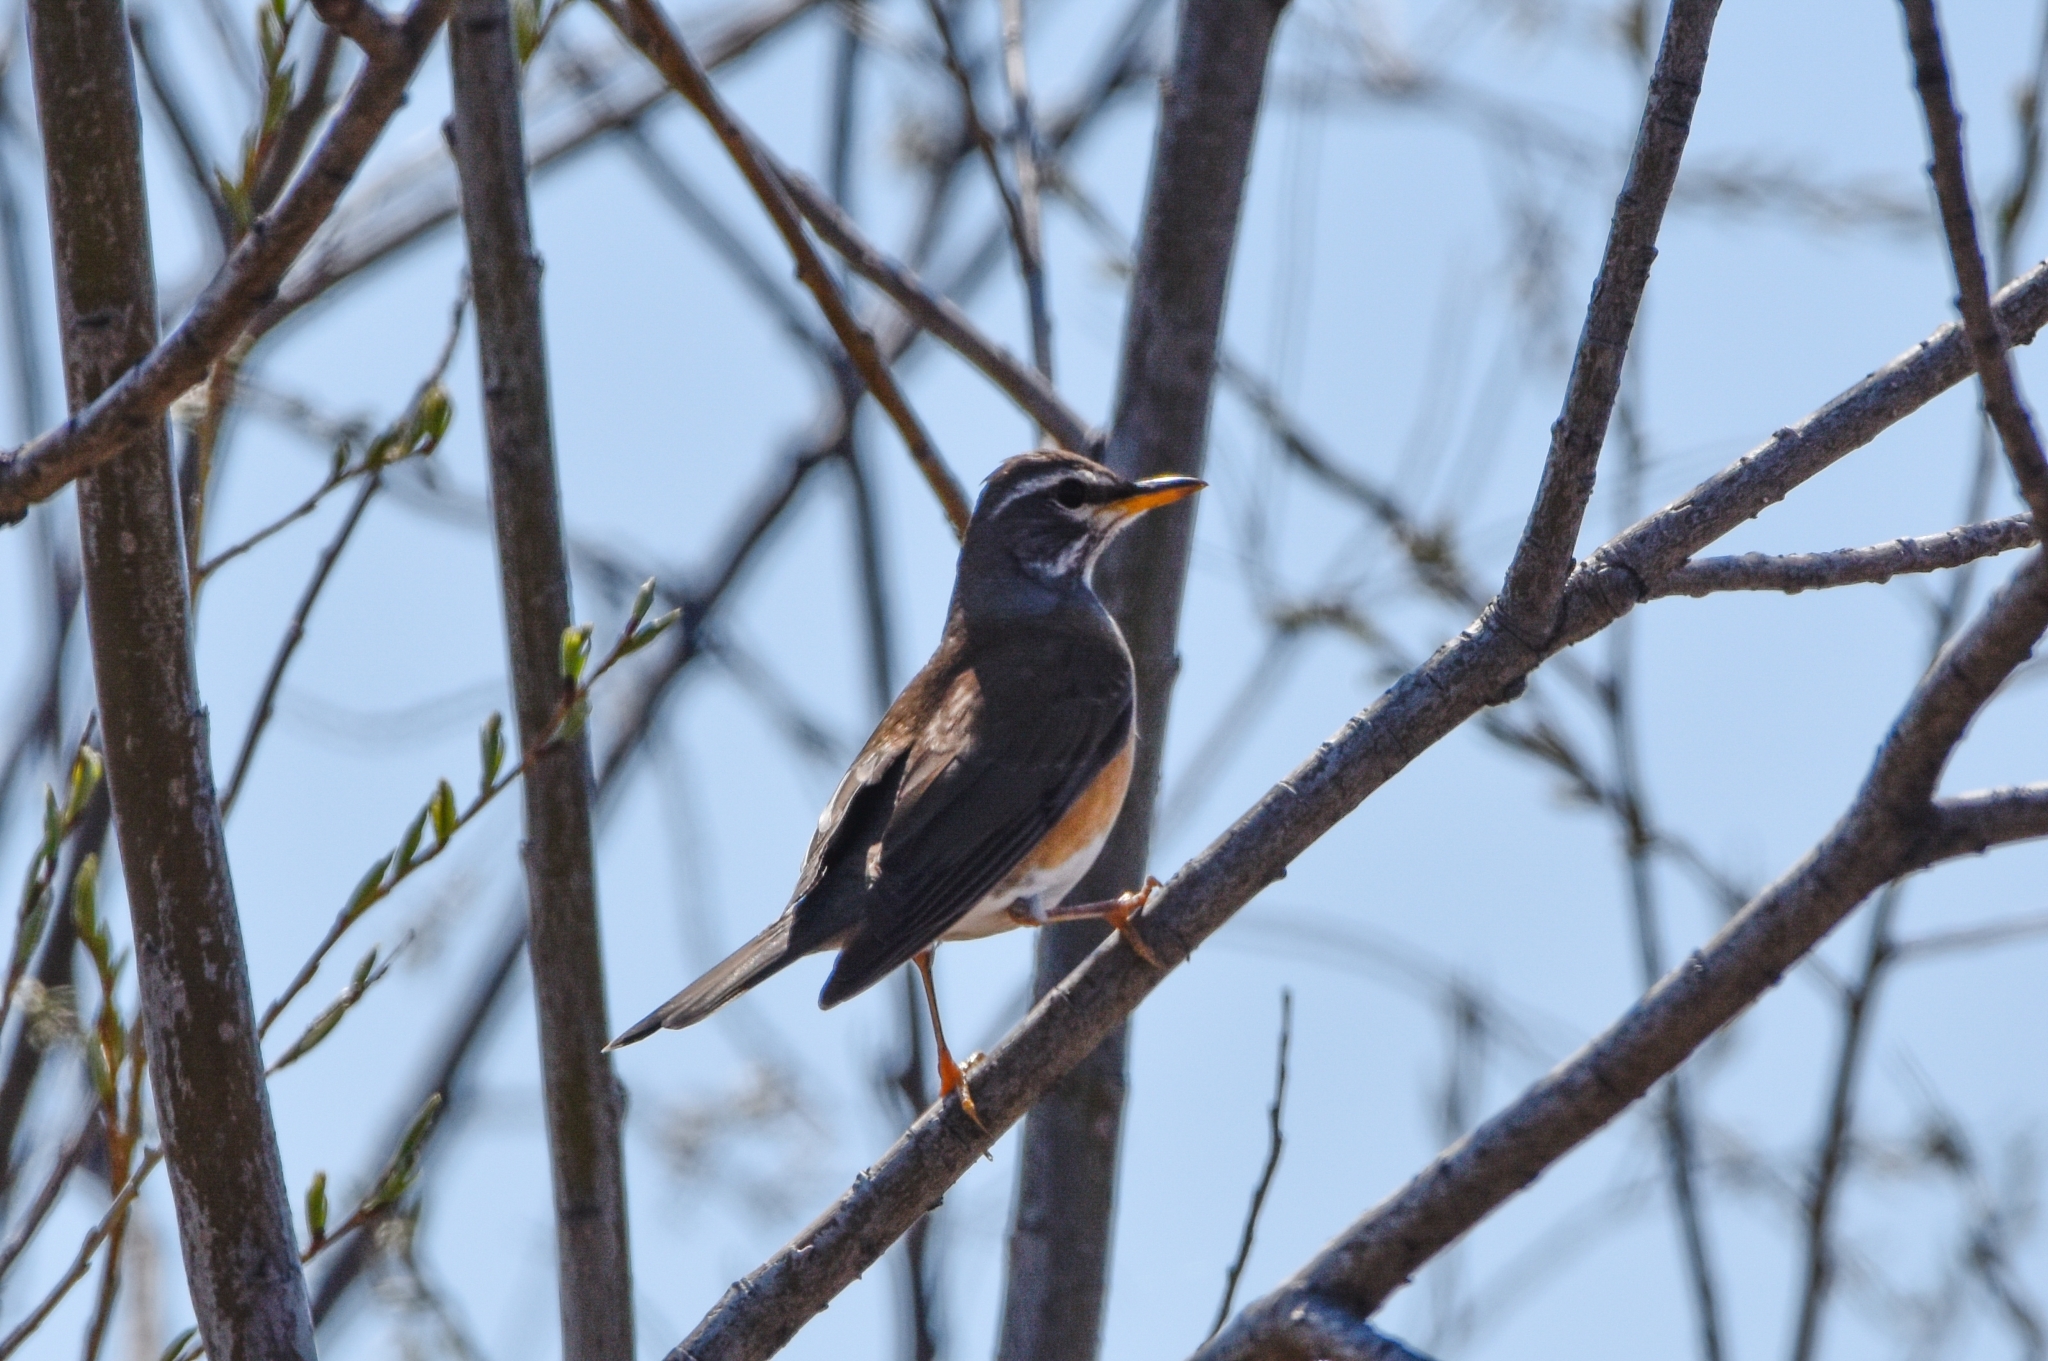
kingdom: Animalia
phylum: Chordata
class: Aves
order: Passeriformes
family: Turdidae
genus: Turdus
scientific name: Turdus obscurus
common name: Eyebrowed thrush
